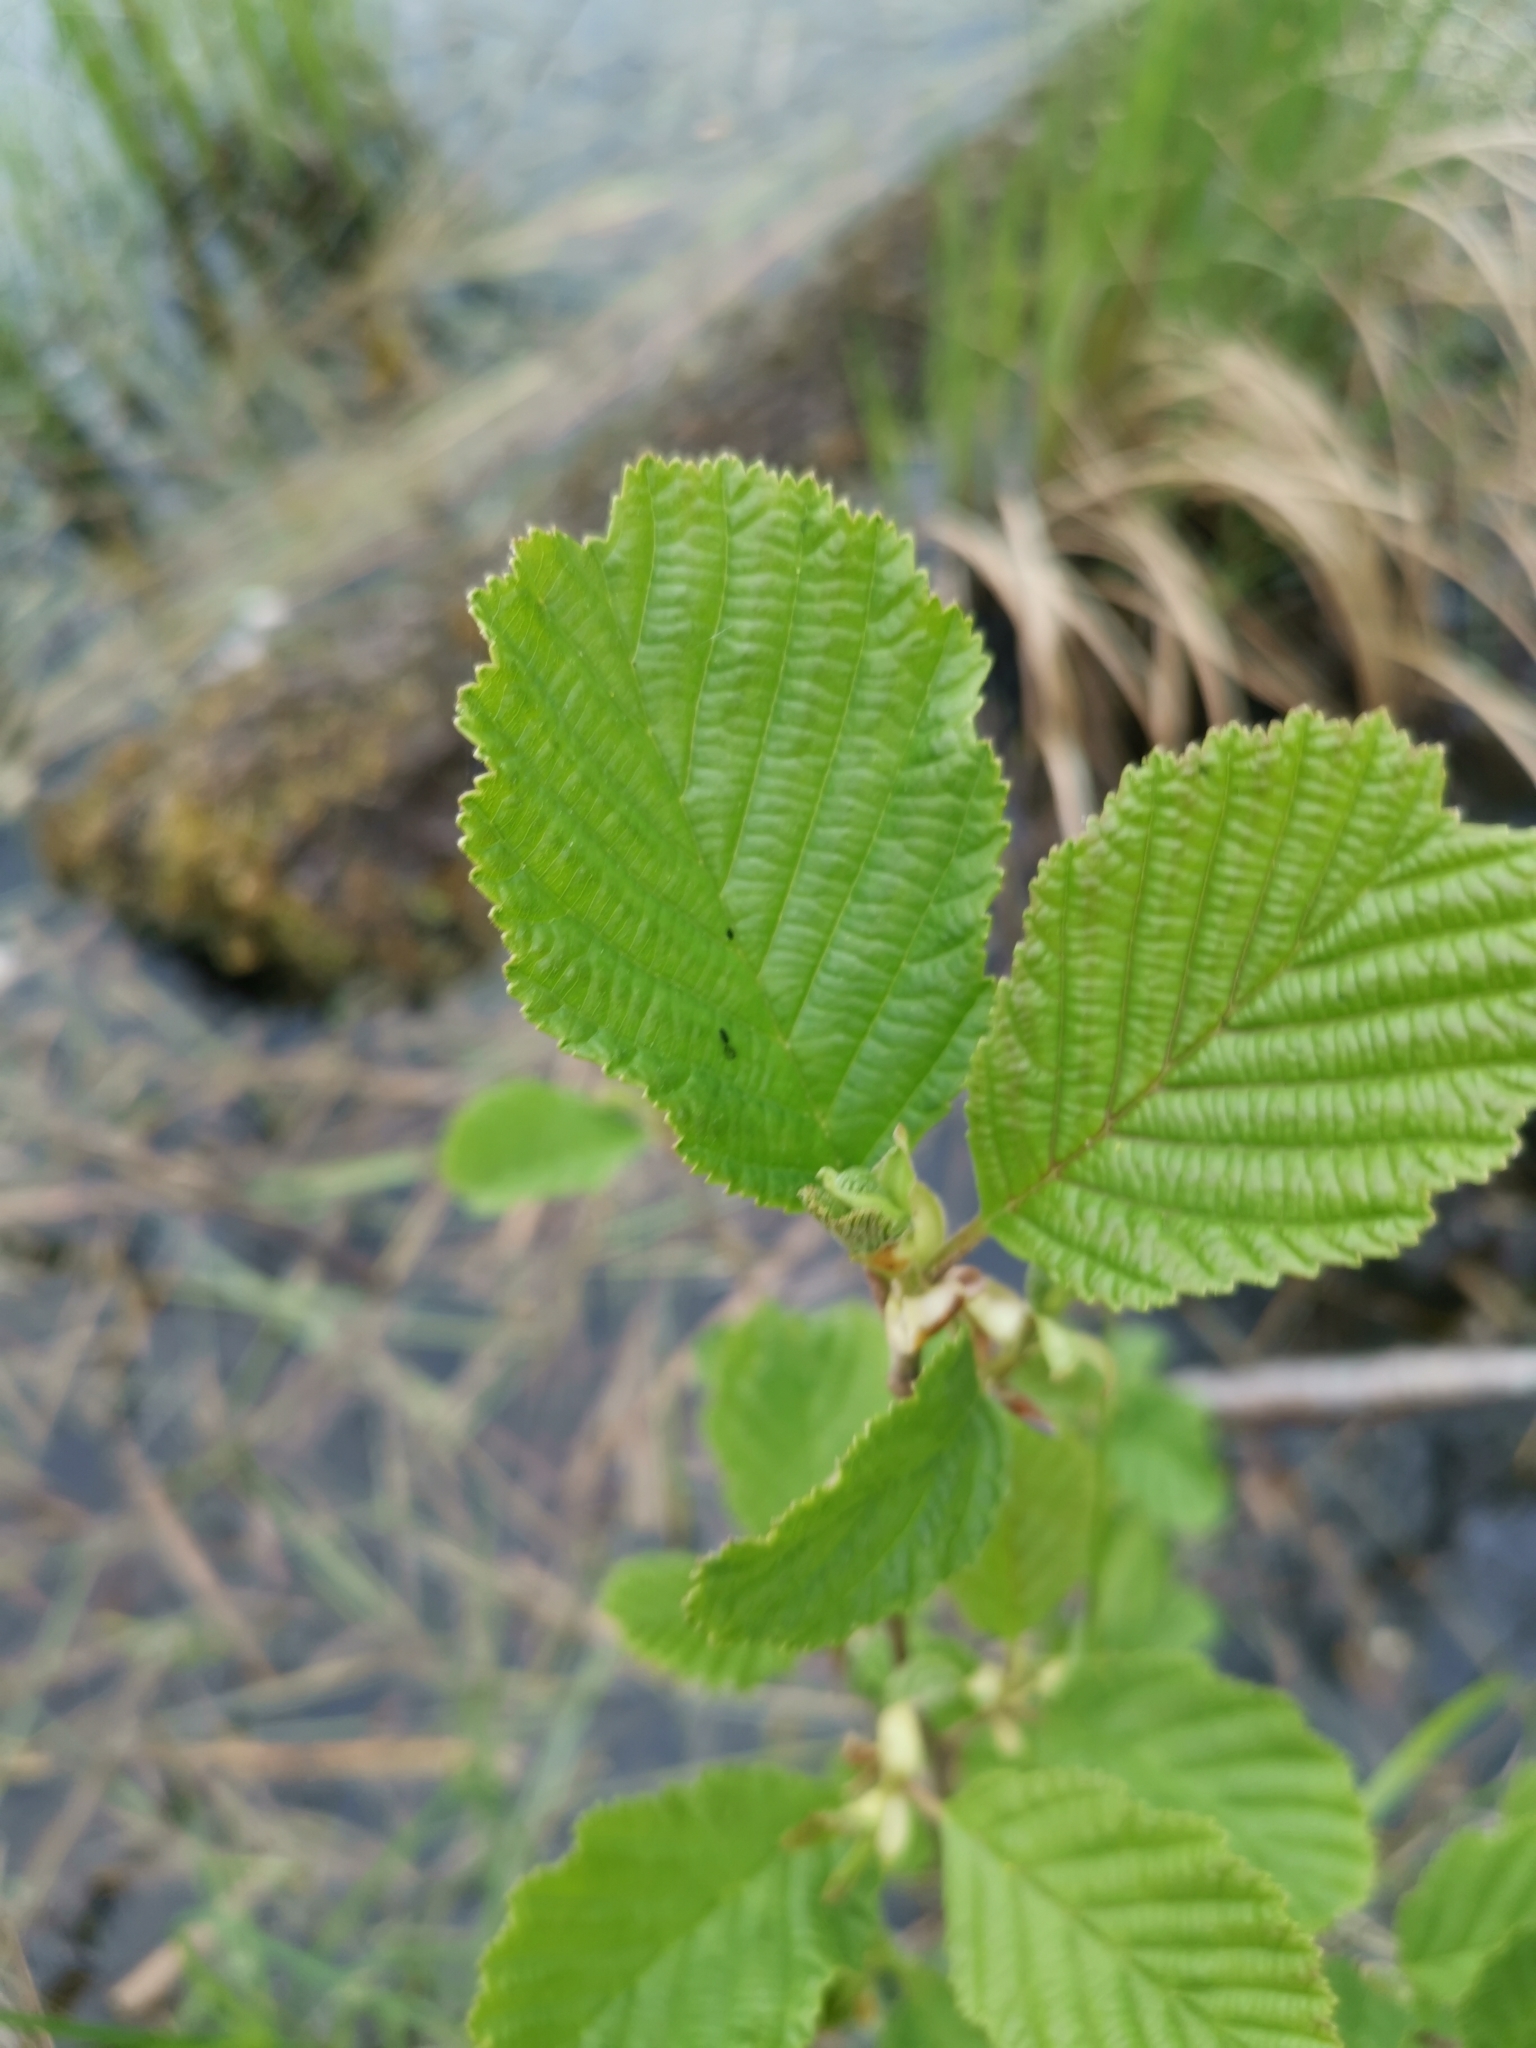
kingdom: Plantae
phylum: Tracheophyta
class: Magnoliopsida
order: Fagales
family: Betulaceae
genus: Alnus
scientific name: Alnus glutinosa
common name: Black alder
